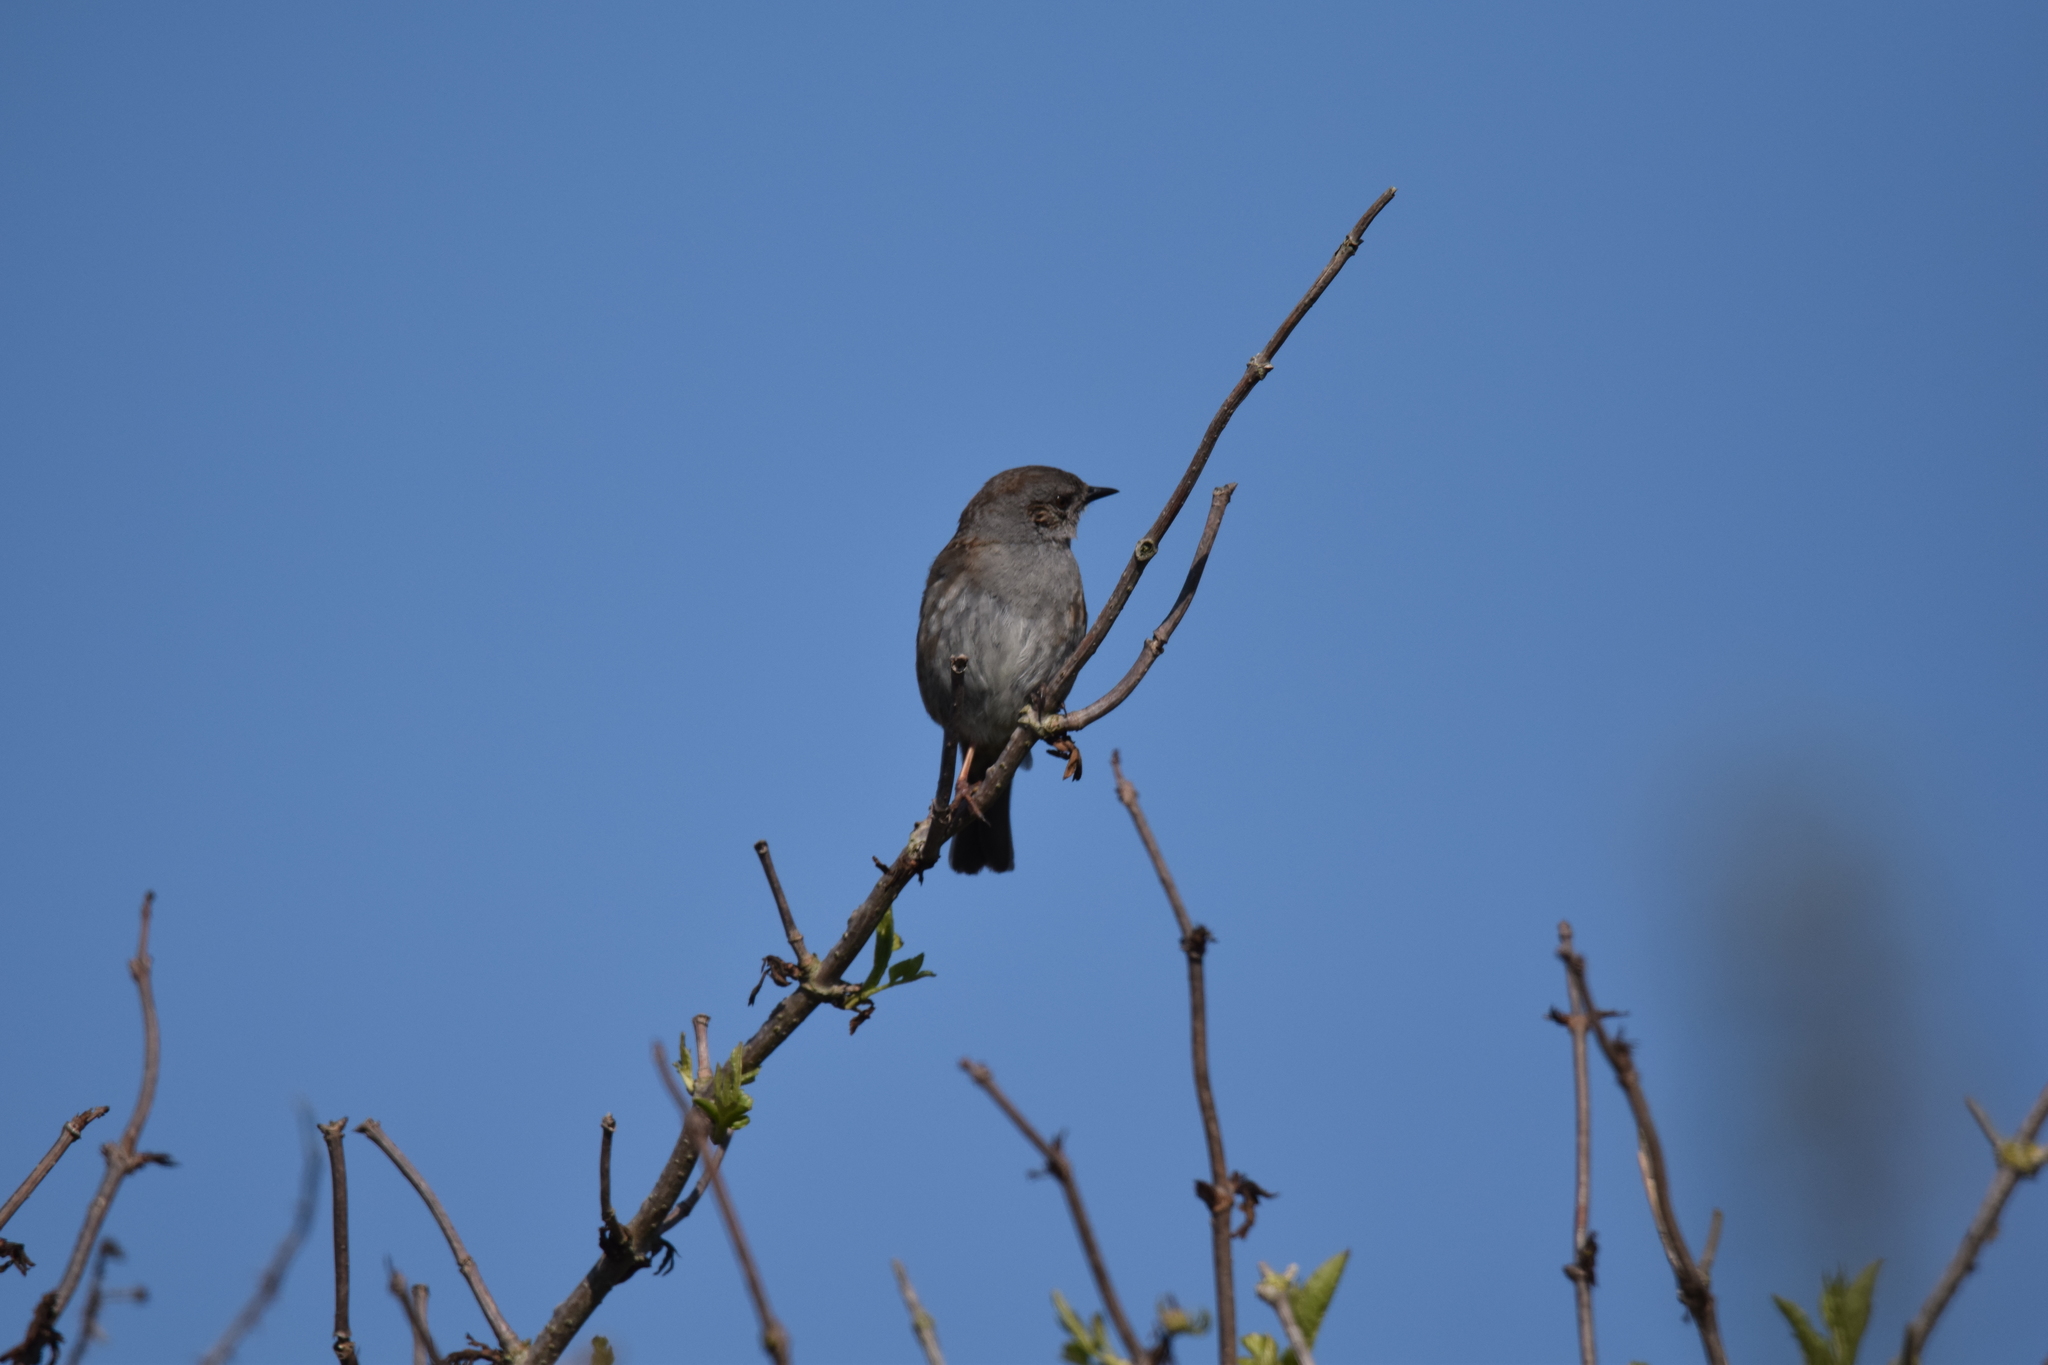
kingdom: Animalia
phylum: Chordata
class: Aves
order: Passeriformes
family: Prunellidae
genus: Prunella
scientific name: Prunella modularis
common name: Dunnock
